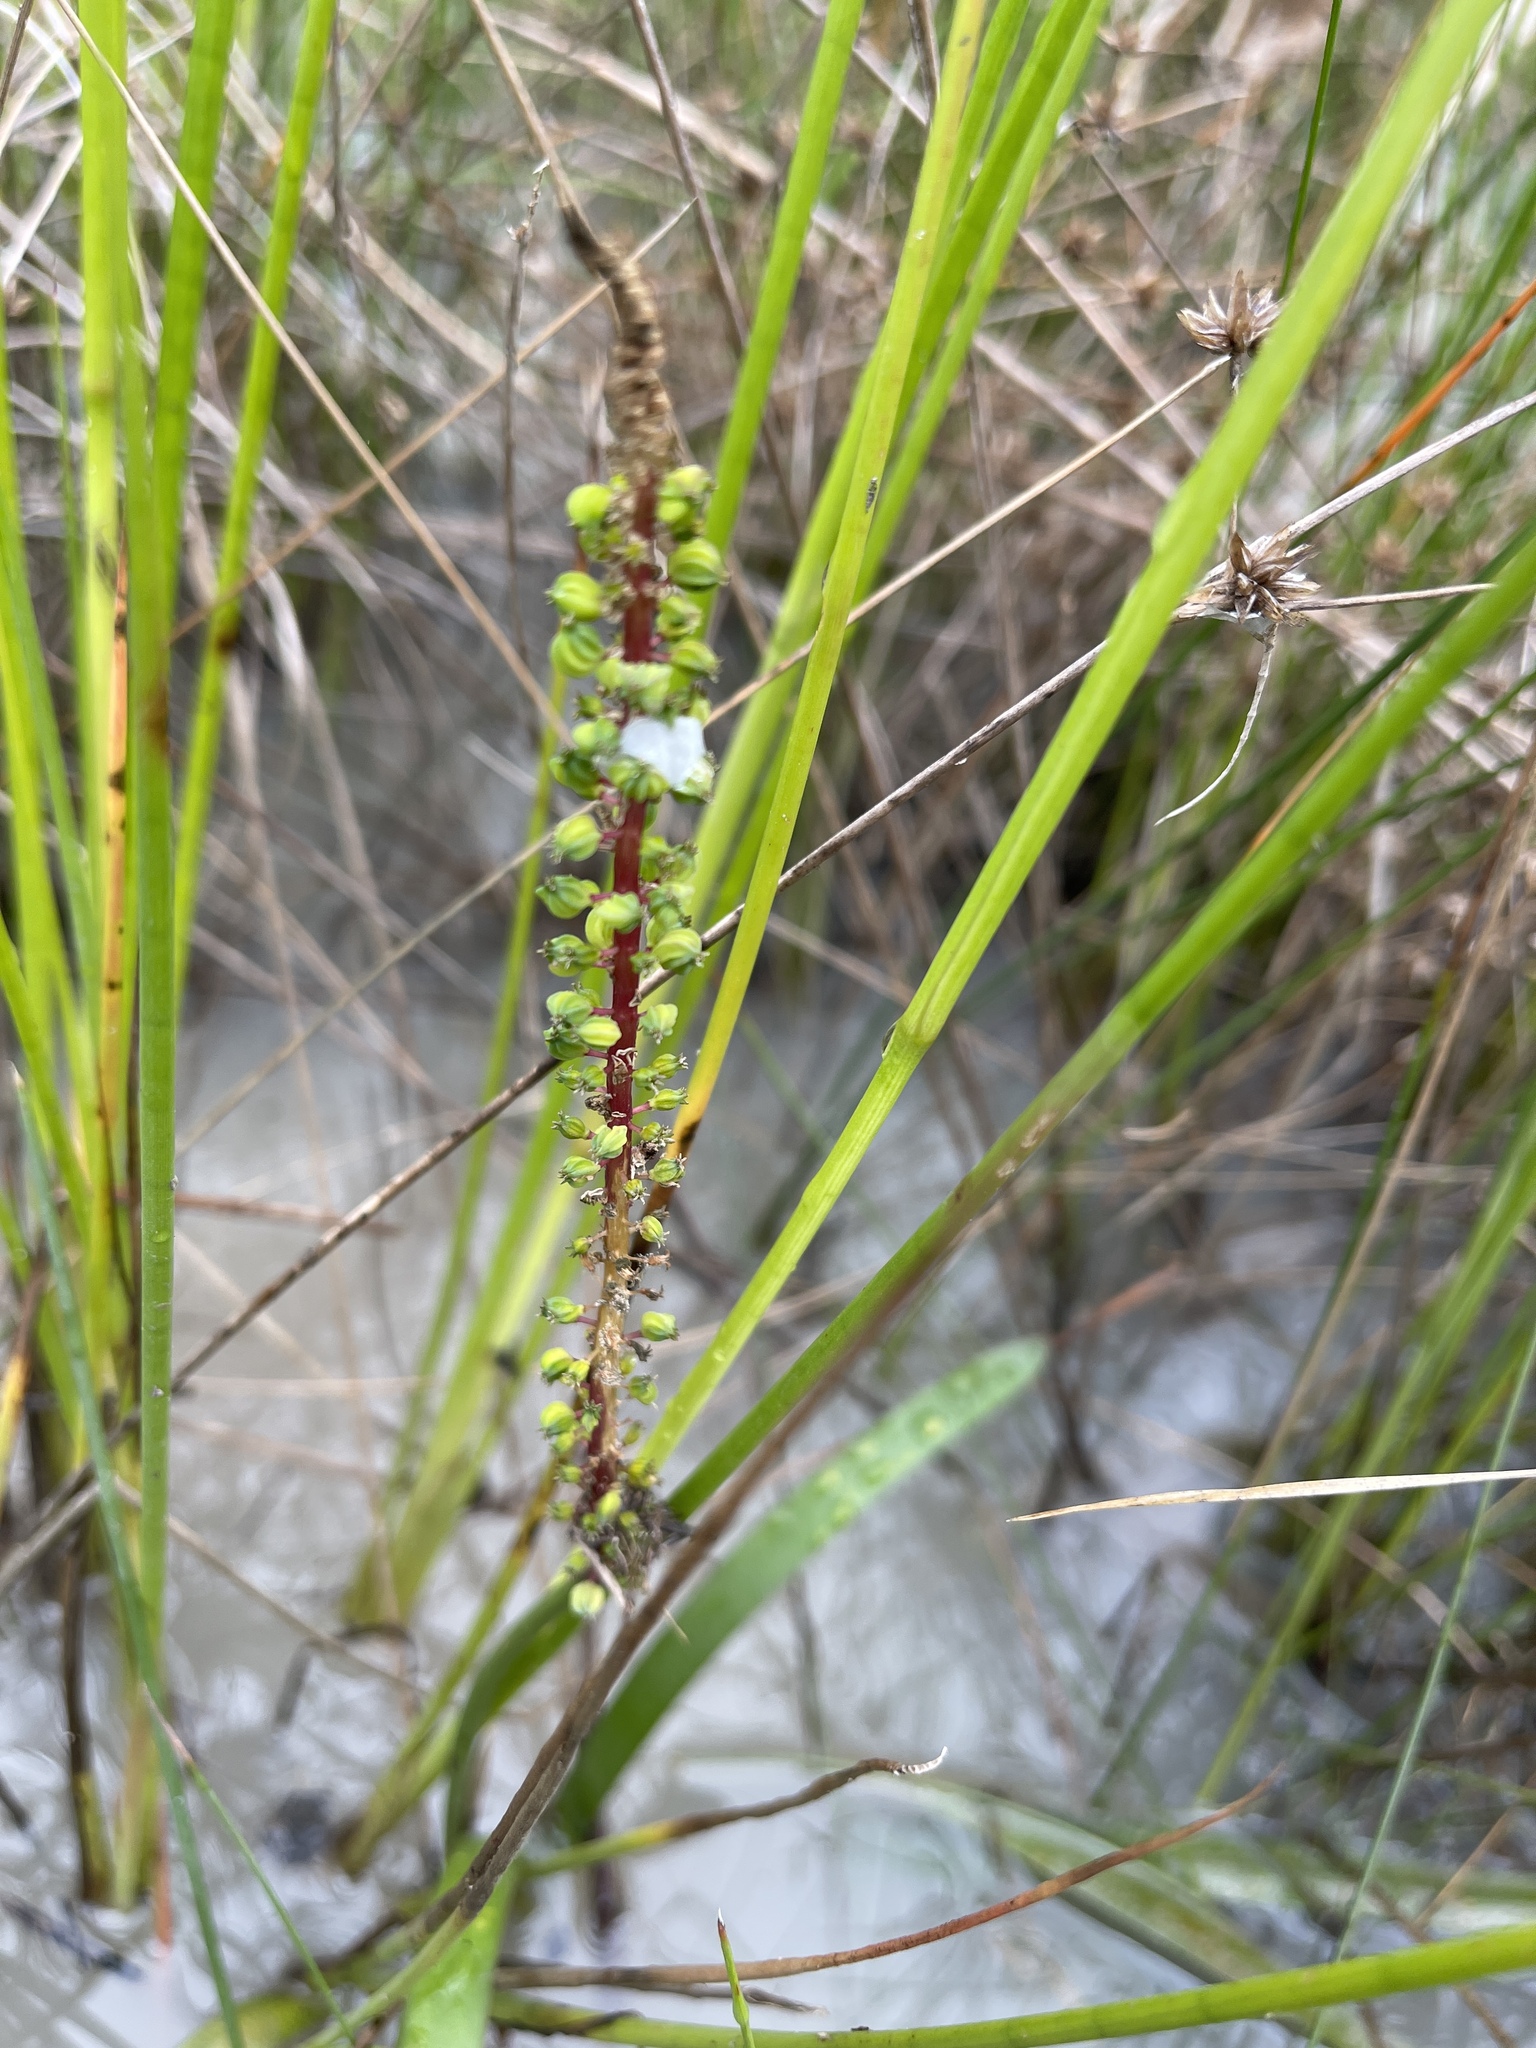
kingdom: Plantae
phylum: Tracheophyta
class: Liliopsida
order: Alismatales
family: Juncaginaceae
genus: Cycnogeton
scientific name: Cycnogeton procerum
